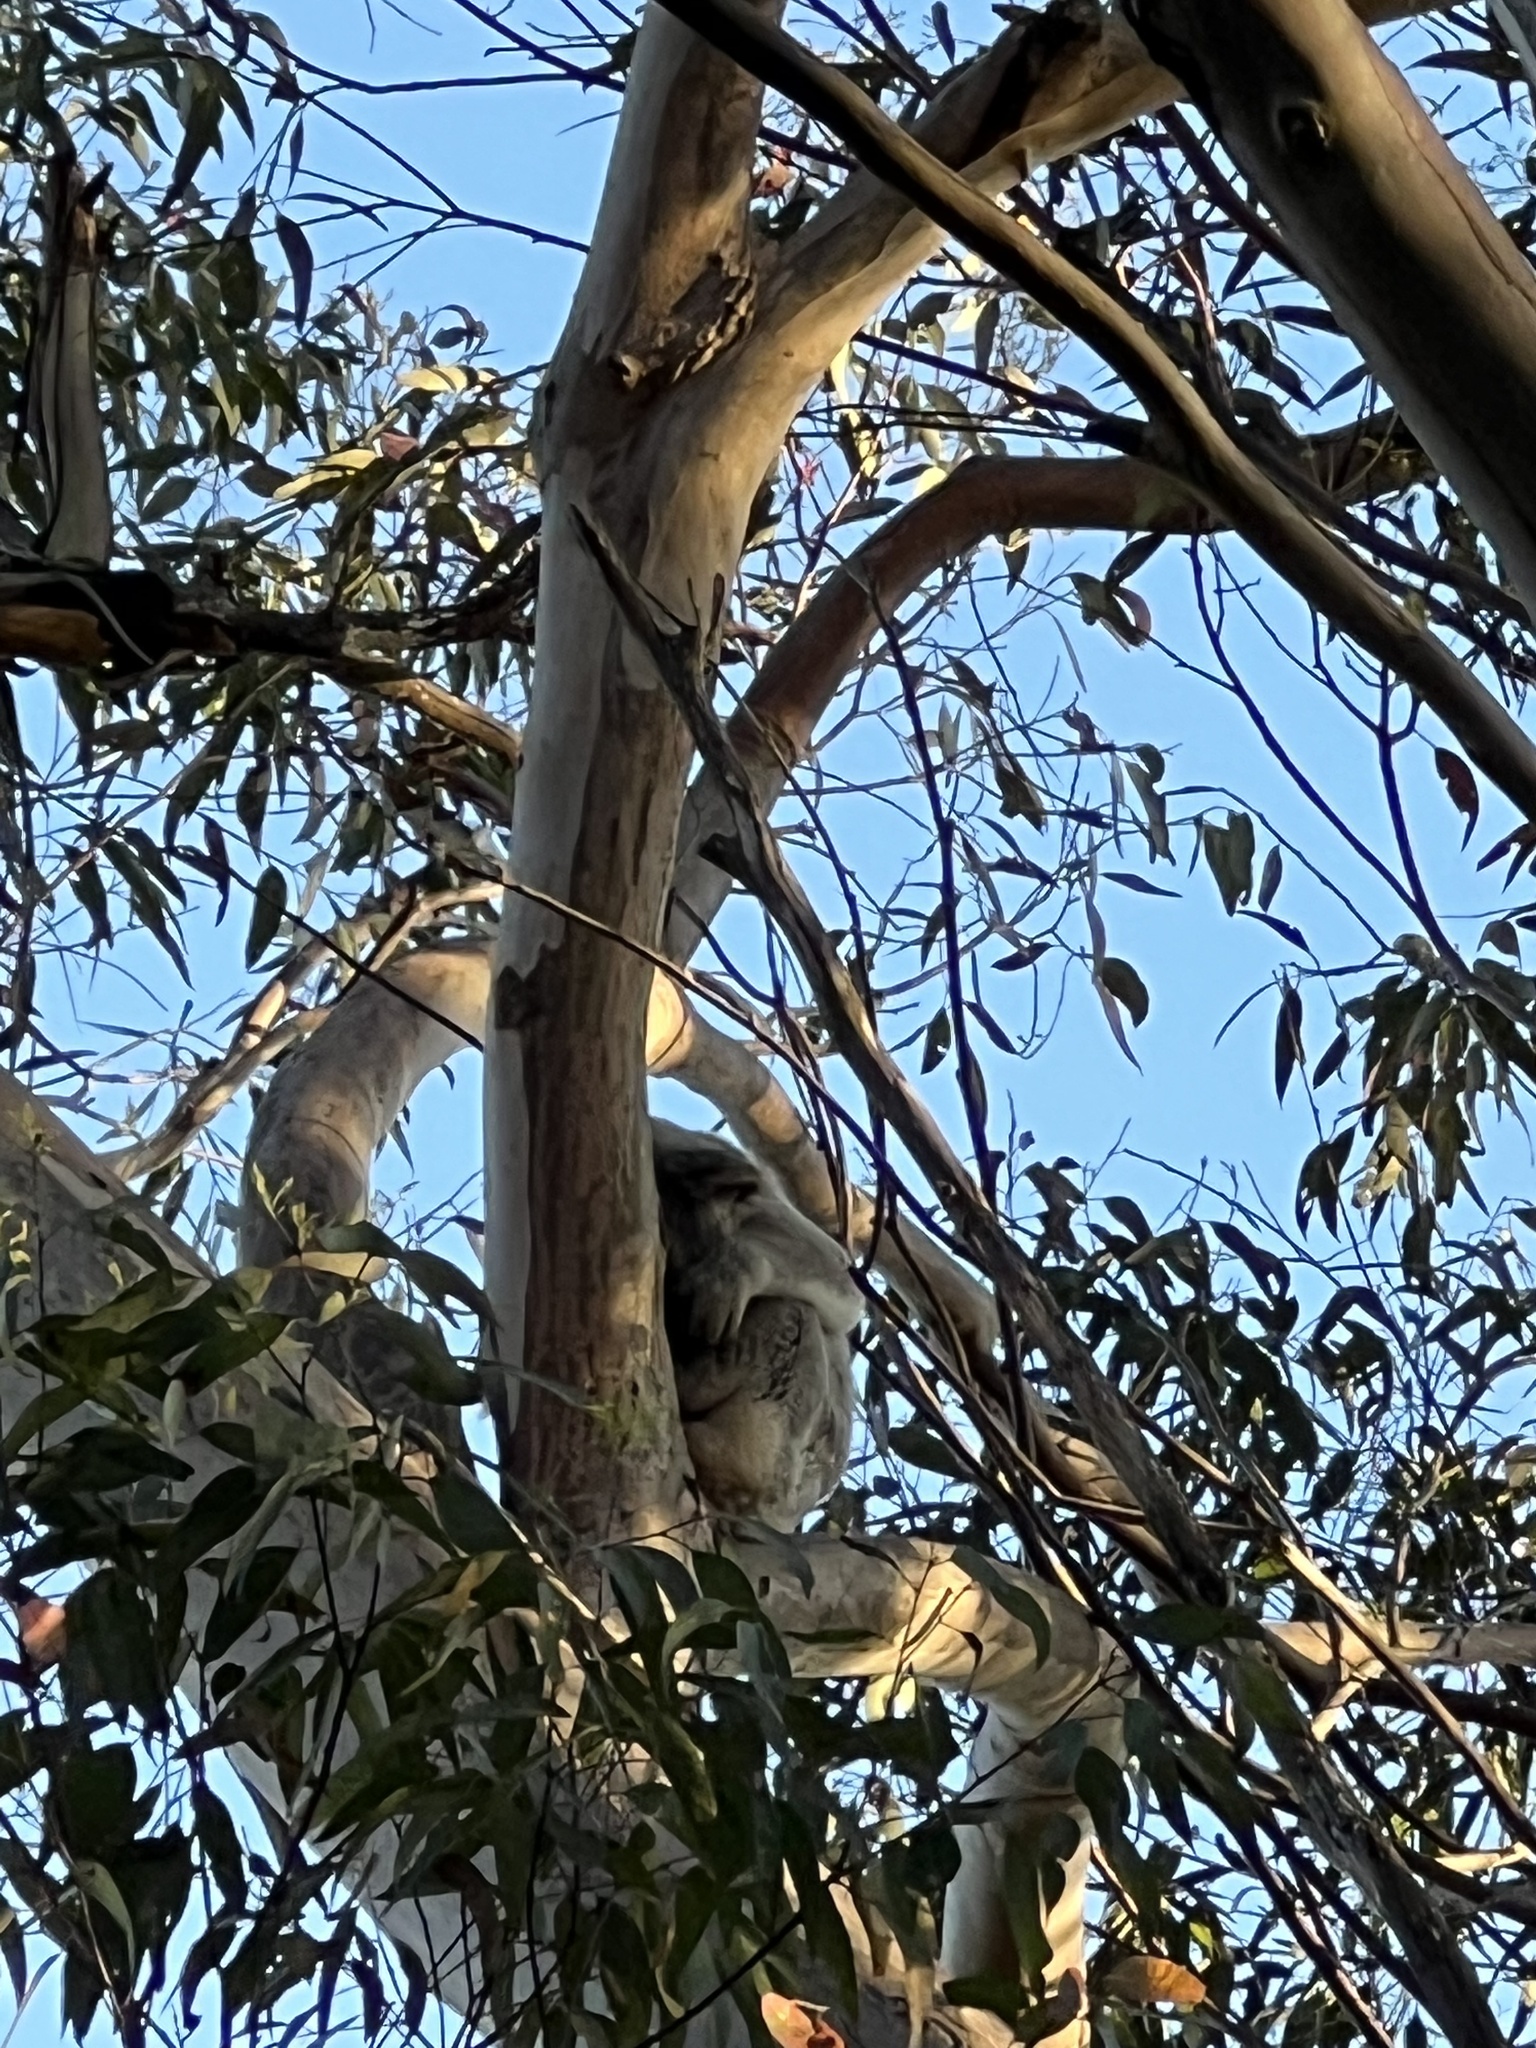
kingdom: Animalia
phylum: Chordata
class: Mammalia
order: Diprotodontia
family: Phascolarctidae
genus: Phascolarctos
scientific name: Phascolarctos cinereus
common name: Koala
